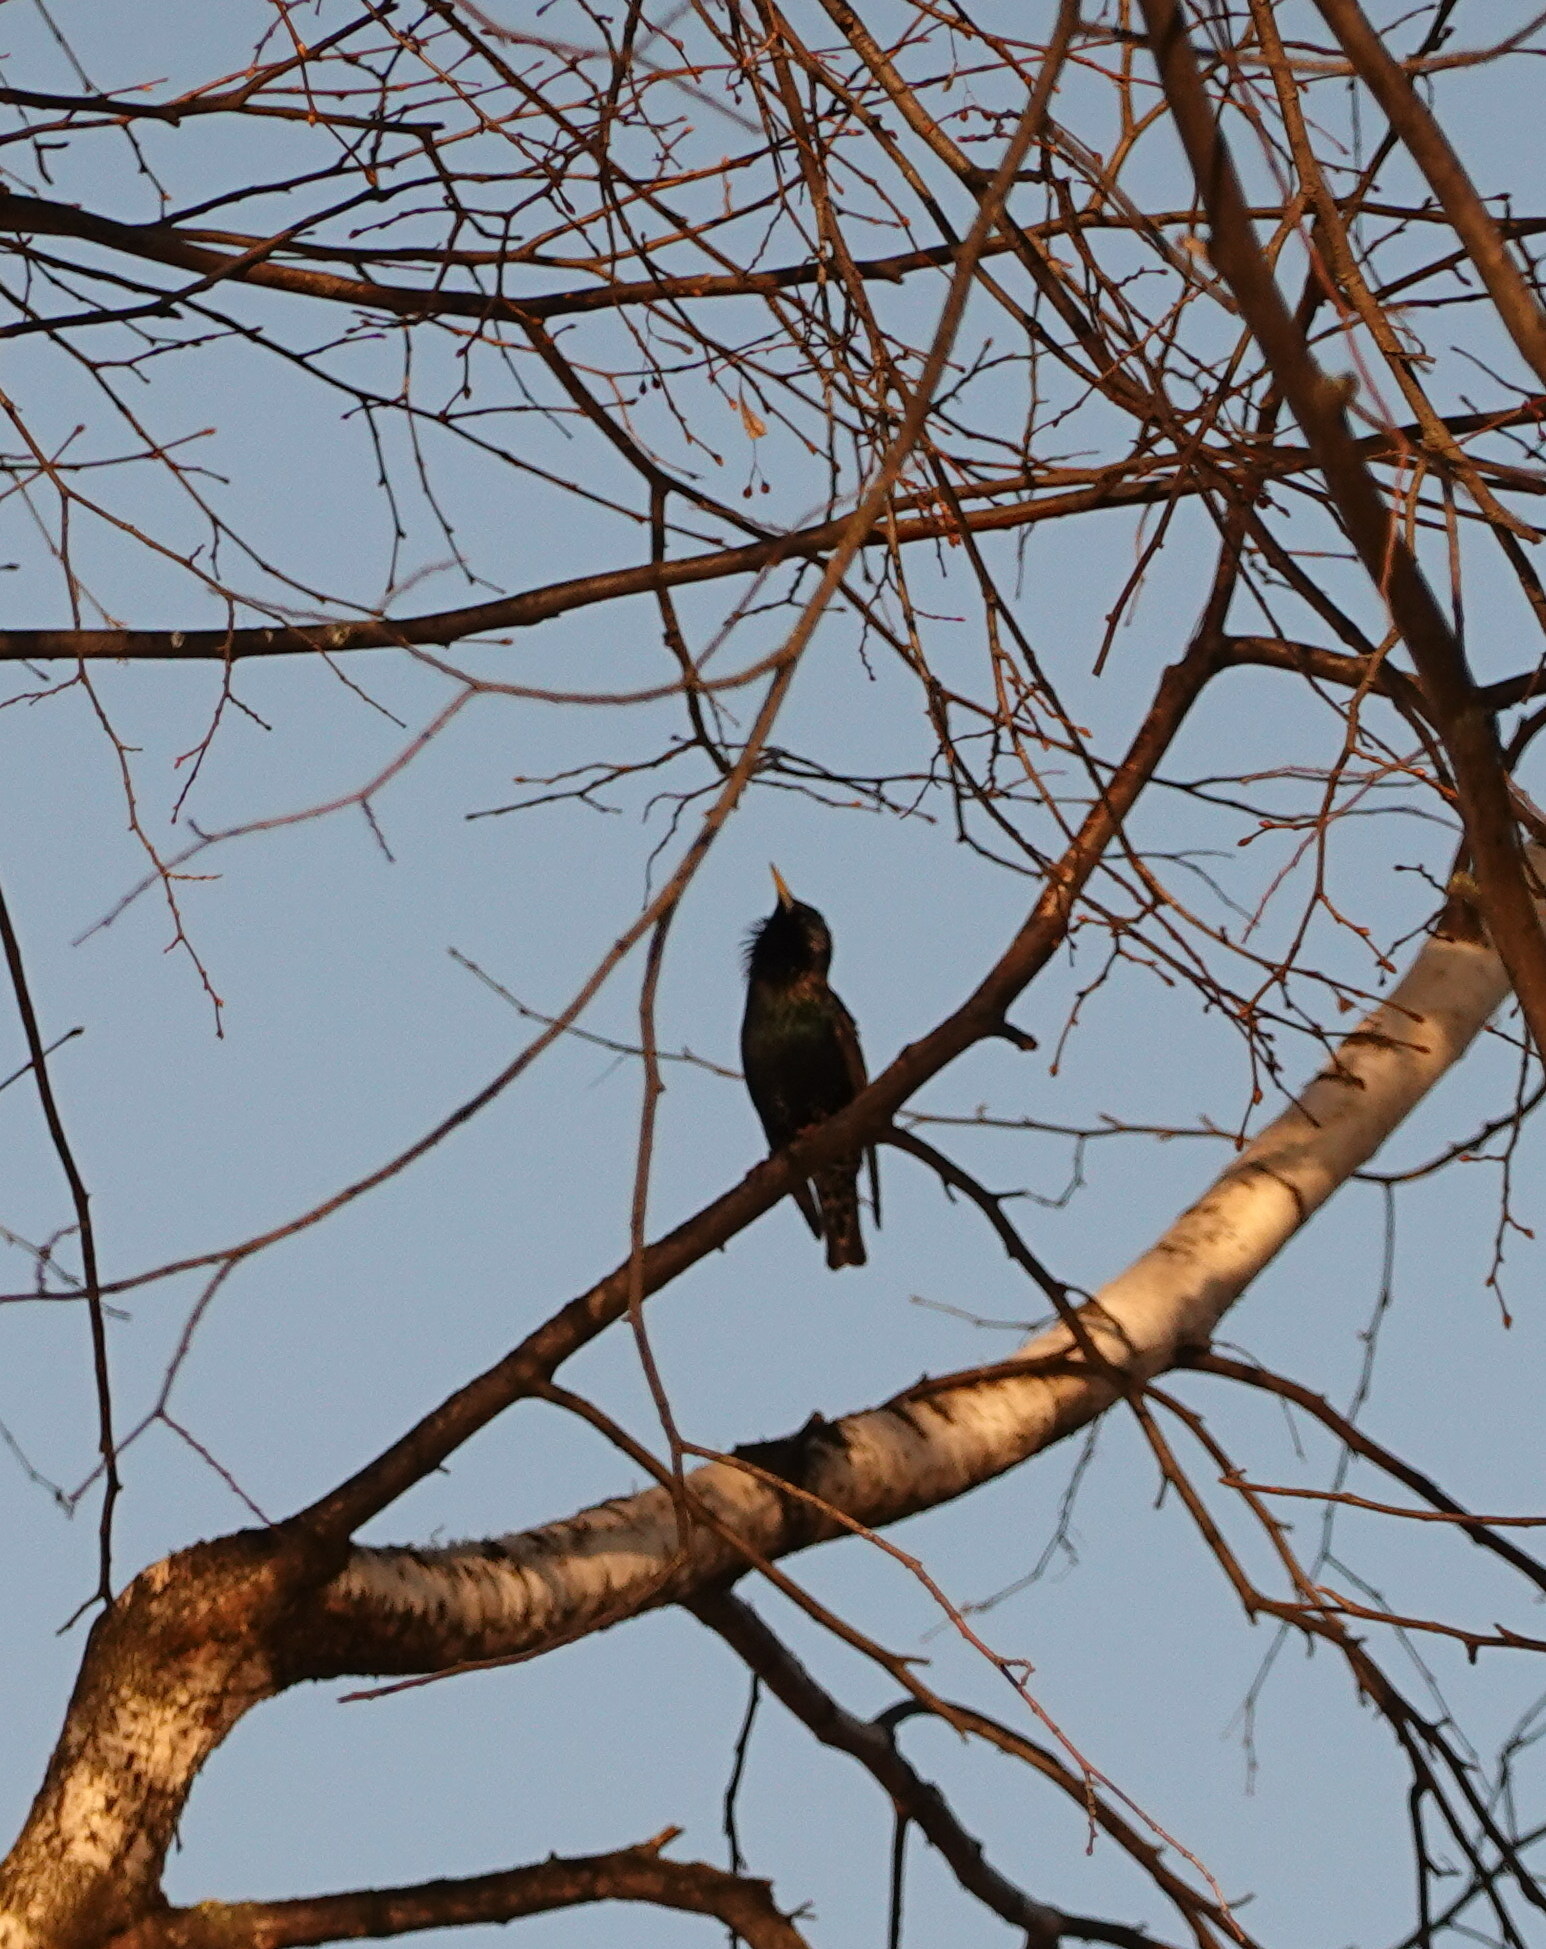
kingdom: Animalia
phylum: Chordata
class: Aves
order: Passeriformes
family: Sturnidae
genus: Sturnus
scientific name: Sturnus vulgaris
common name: Common starling
